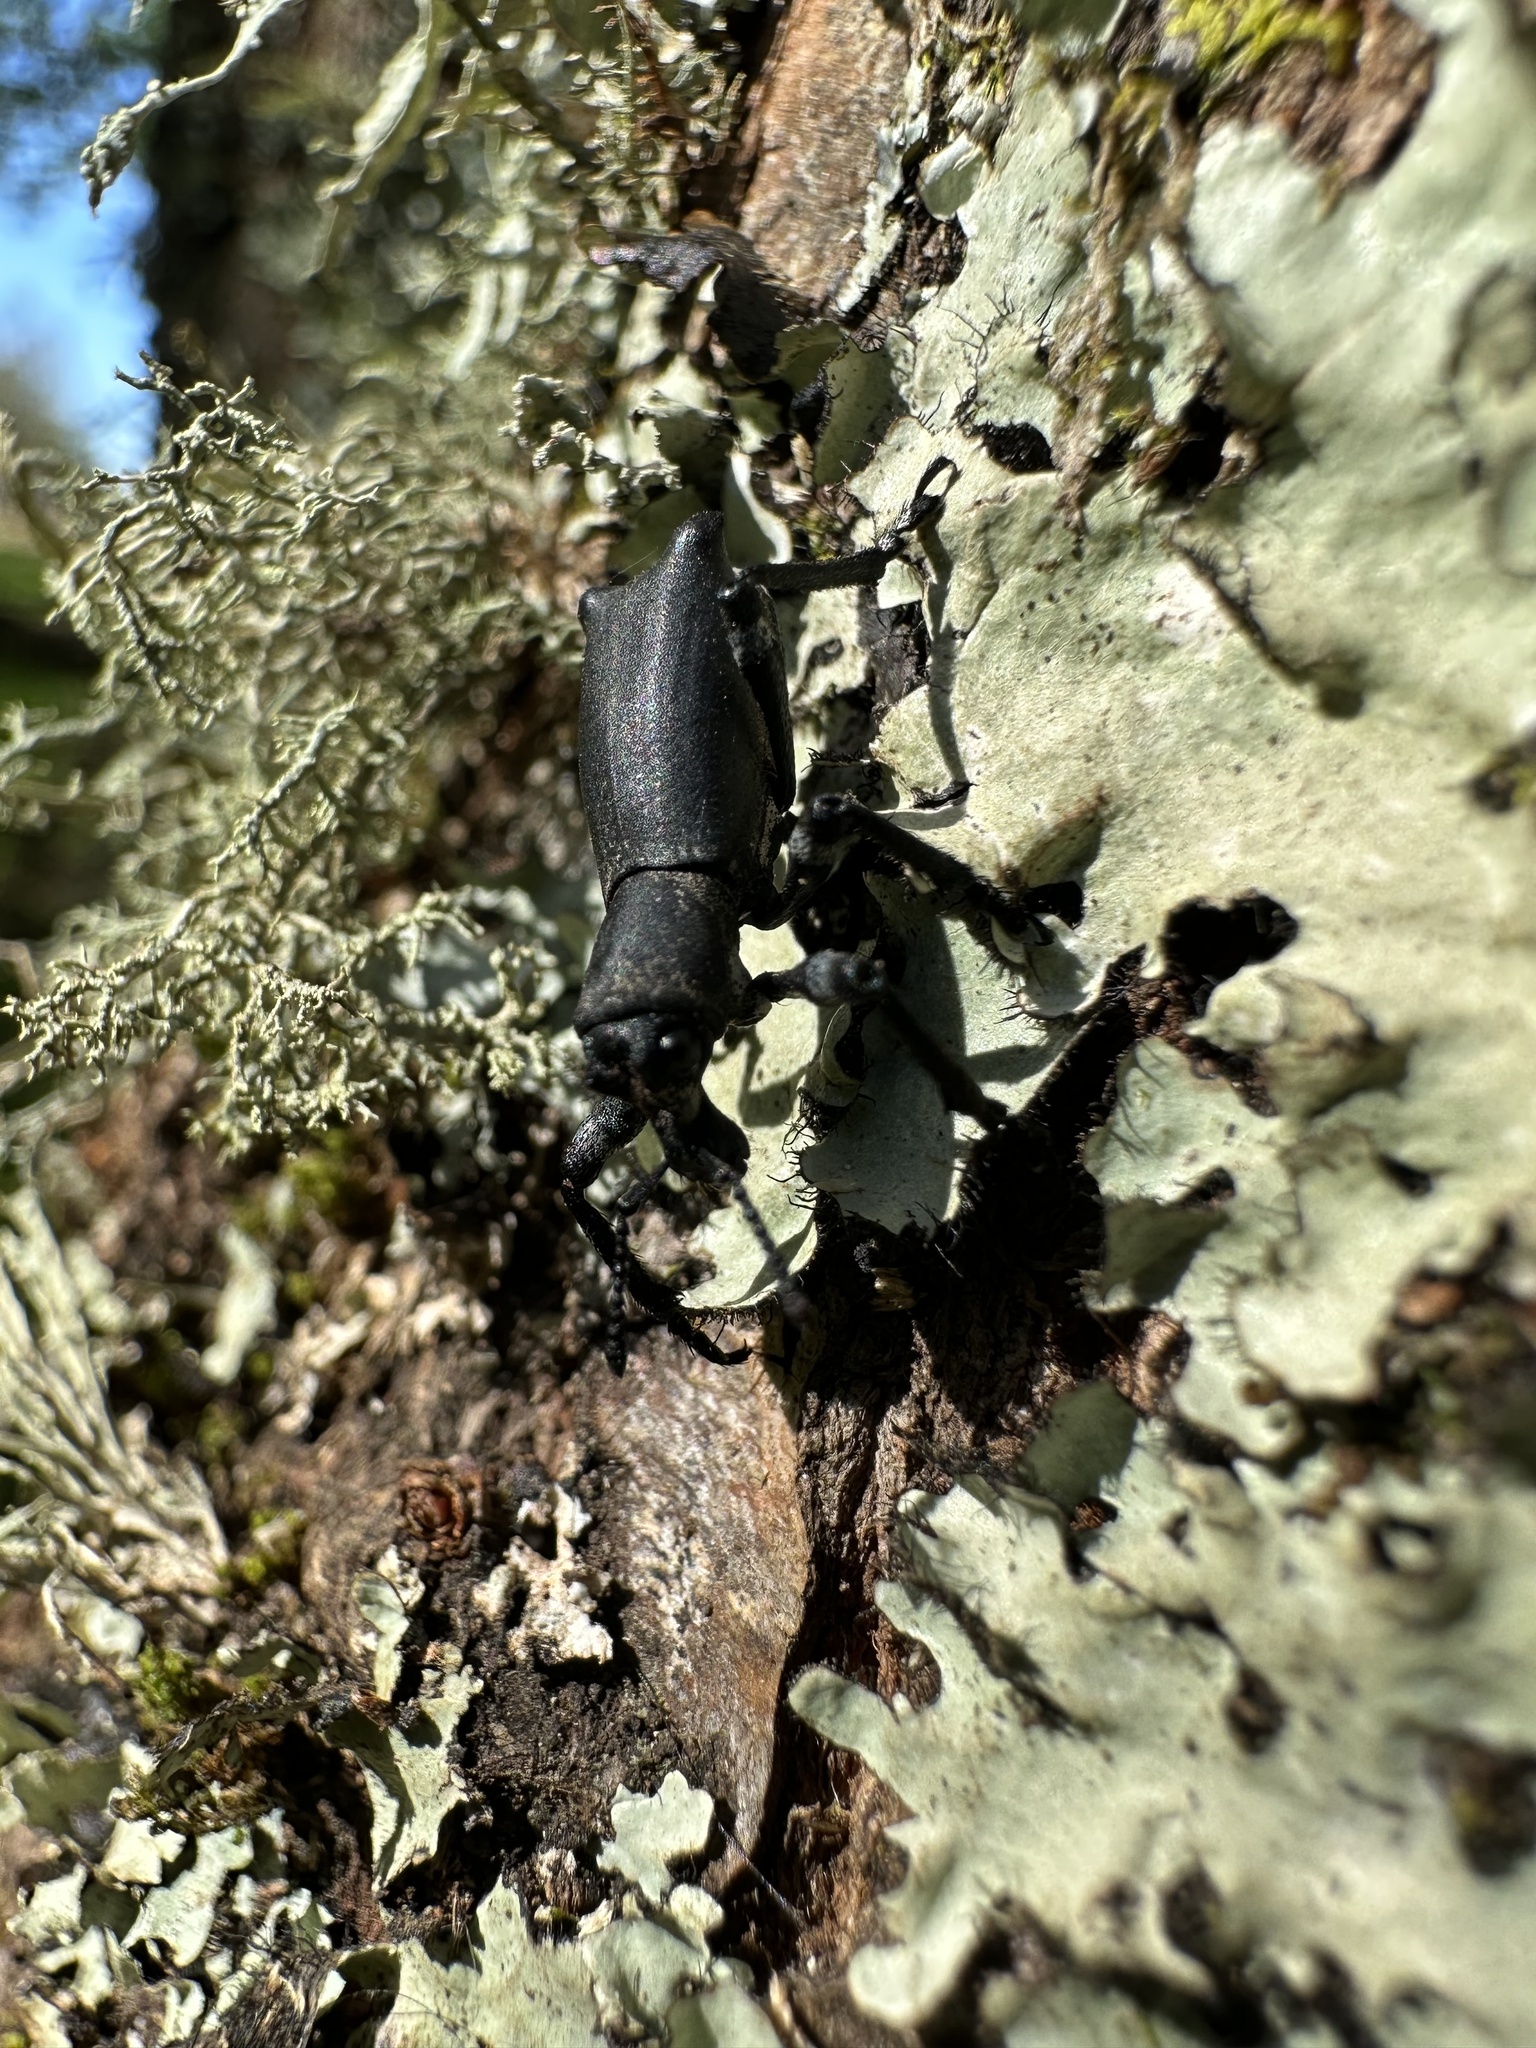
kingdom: Animalia
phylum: Arthropoda
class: Insecta
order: Coleoptera
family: Curculionidae
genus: Aegorhinus
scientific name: Aegorhinus
